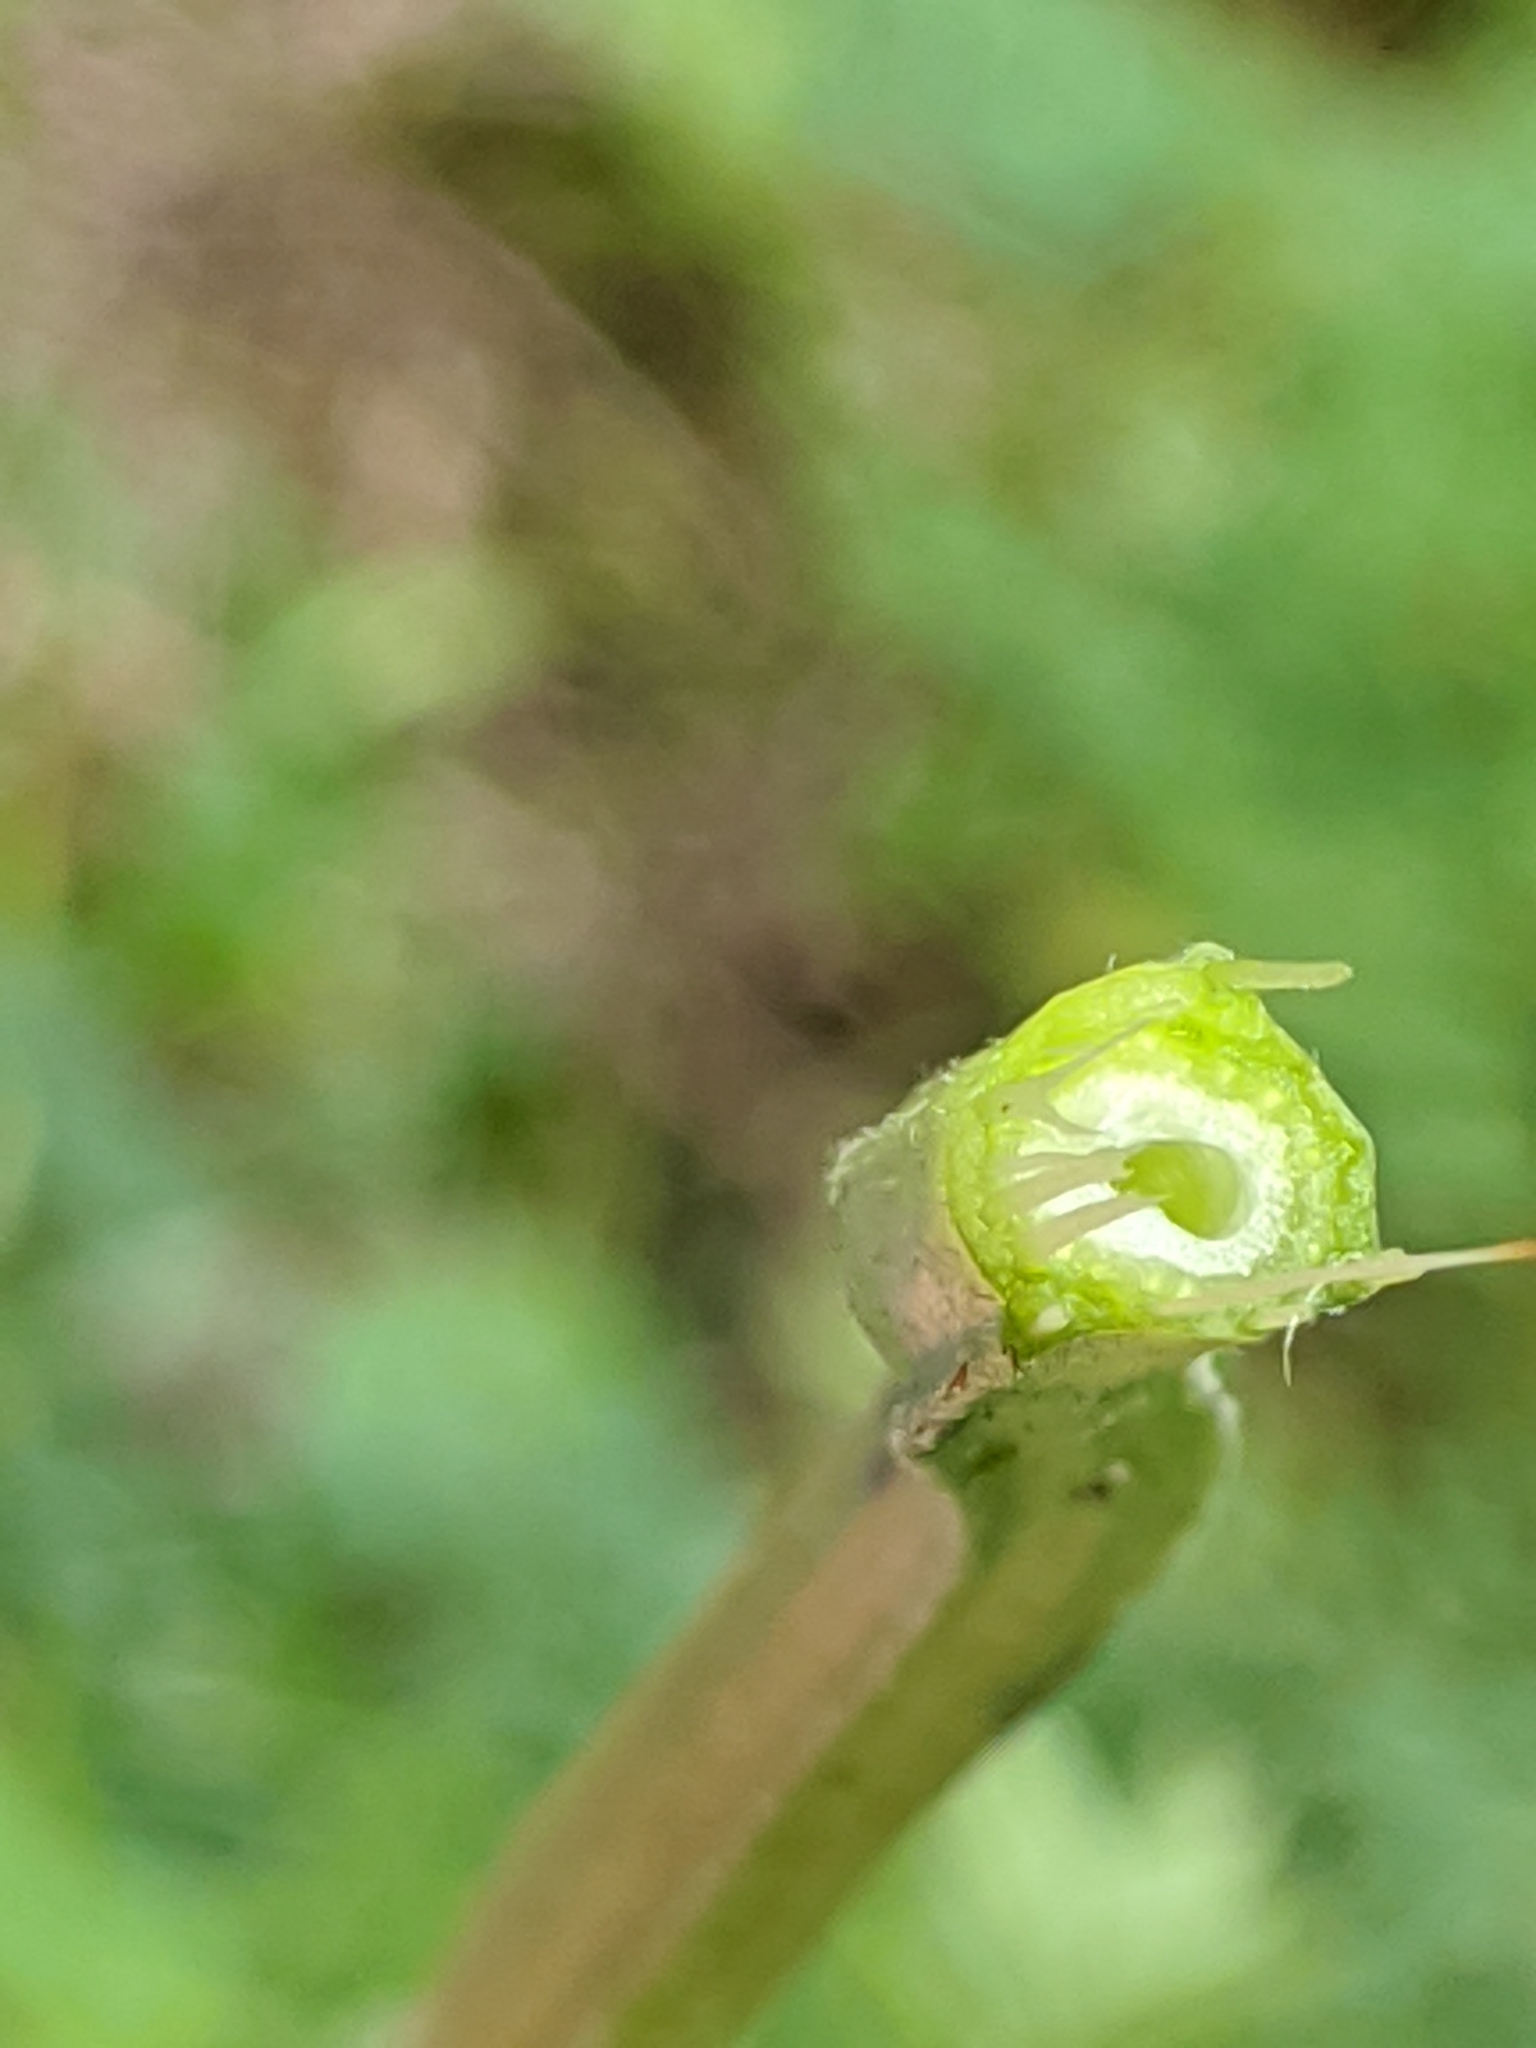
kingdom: Plantae
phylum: Tracheophyta
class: Magnoliopsida
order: Fabales
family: Fabaceae
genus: Vicia
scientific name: Vicia
